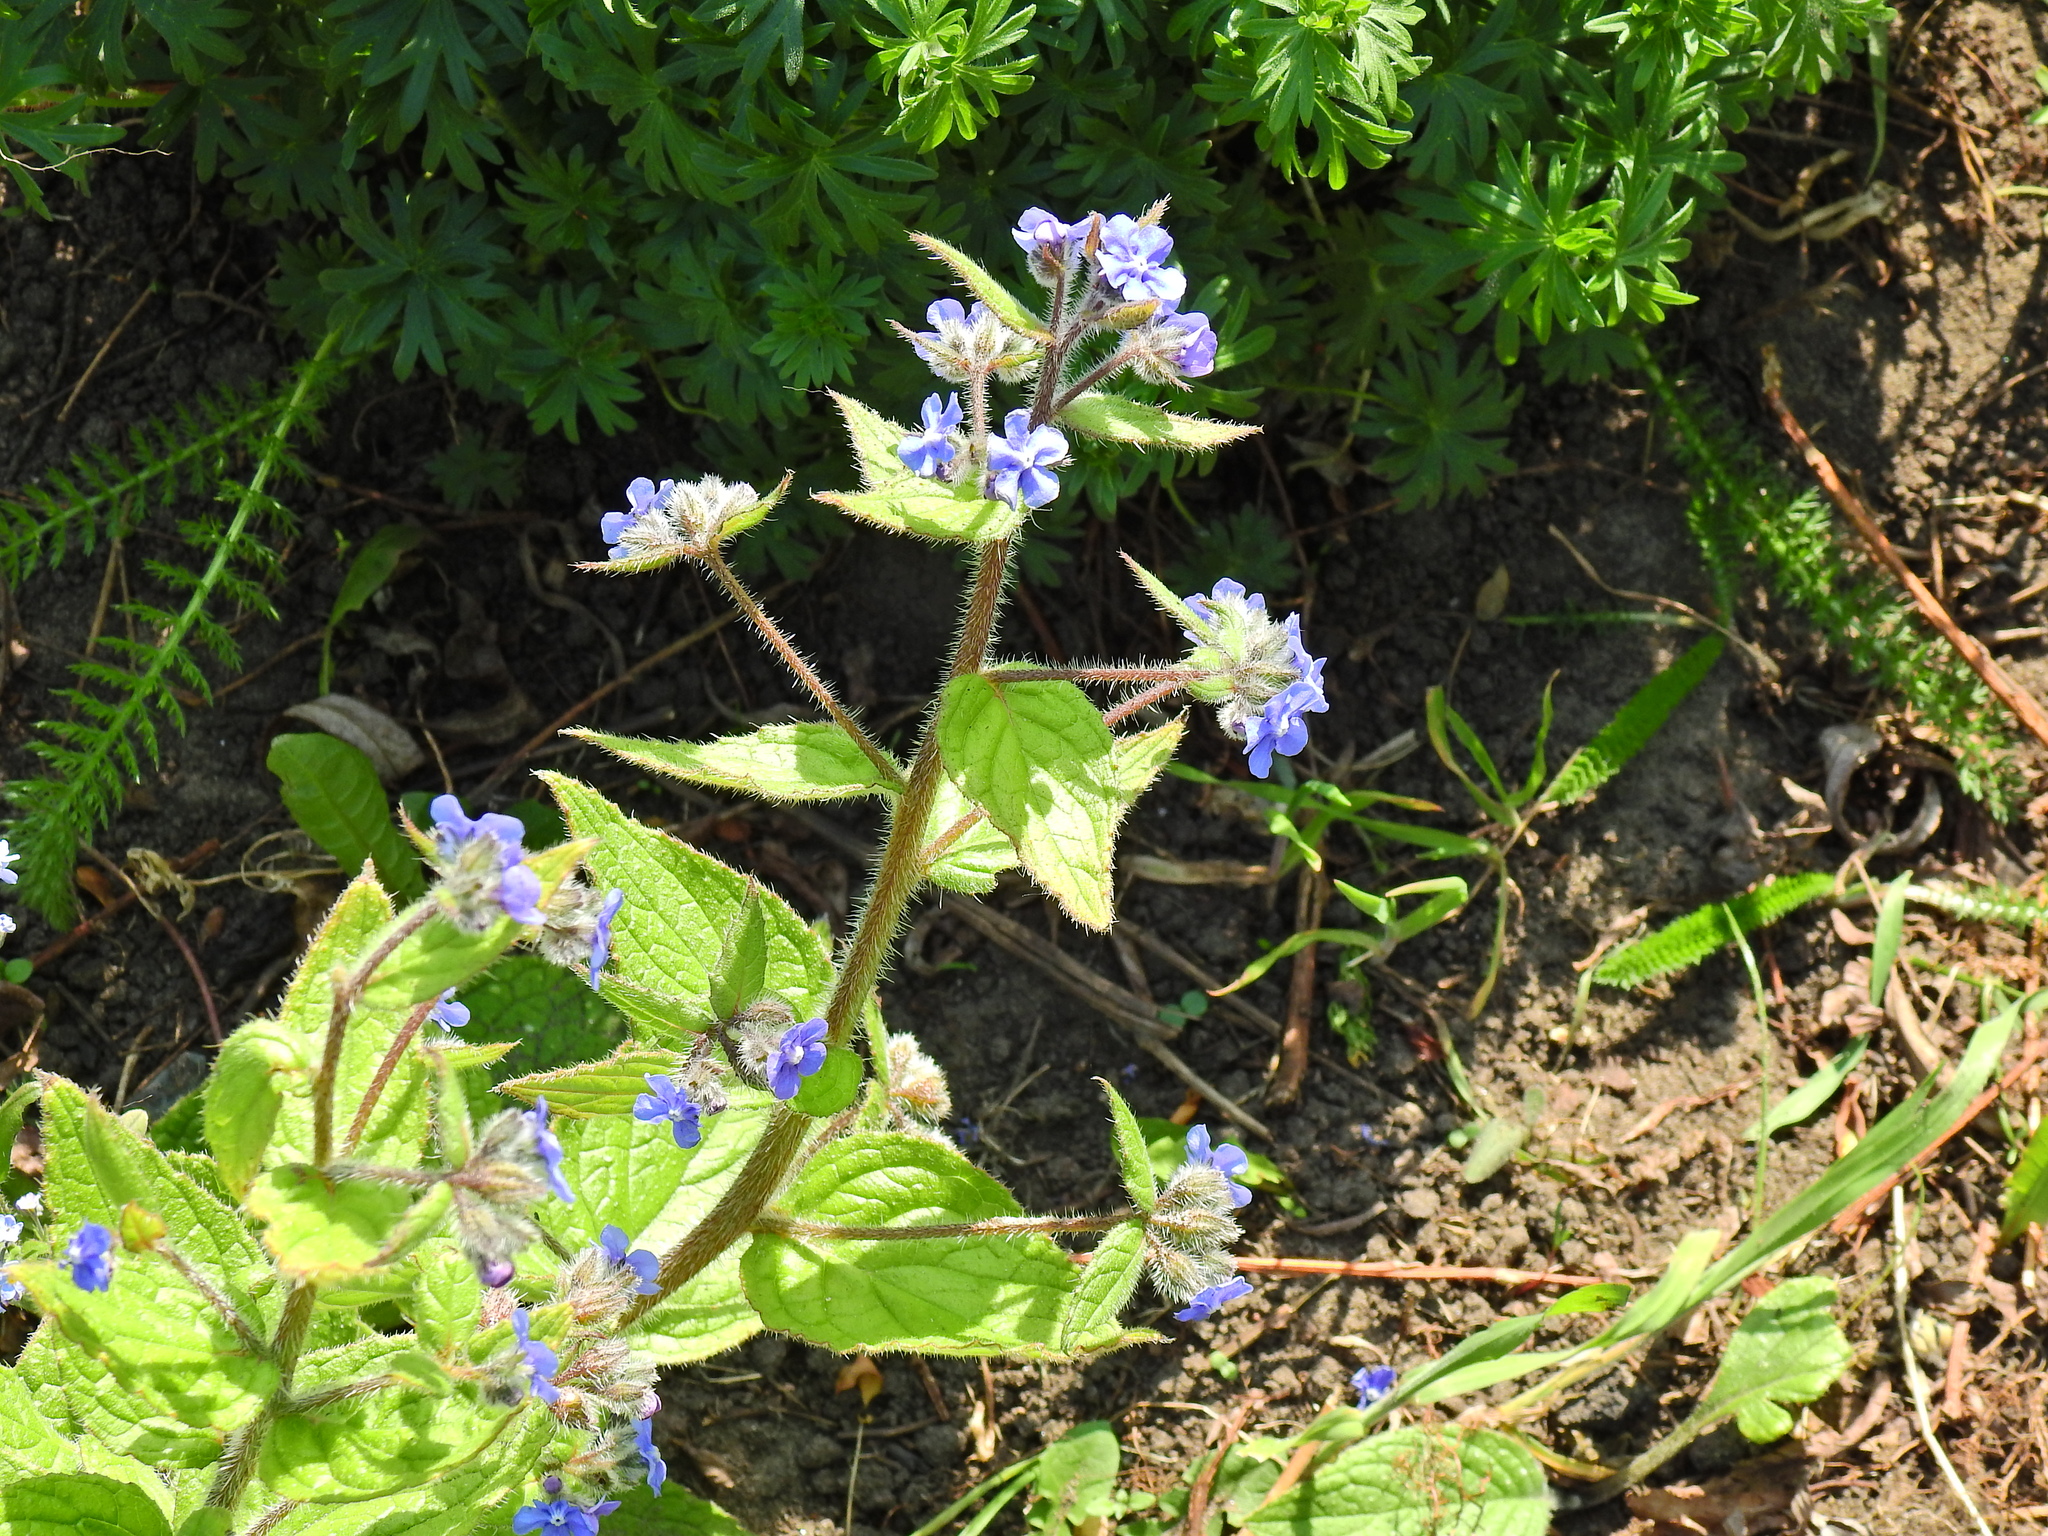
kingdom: Plantae
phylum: Tracheophyta
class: Magnoliopsida
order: Boraginales
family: Boraginaceae
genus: Pentaglottis
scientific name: Pentaglottis sempervirens
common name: Green alkanet
